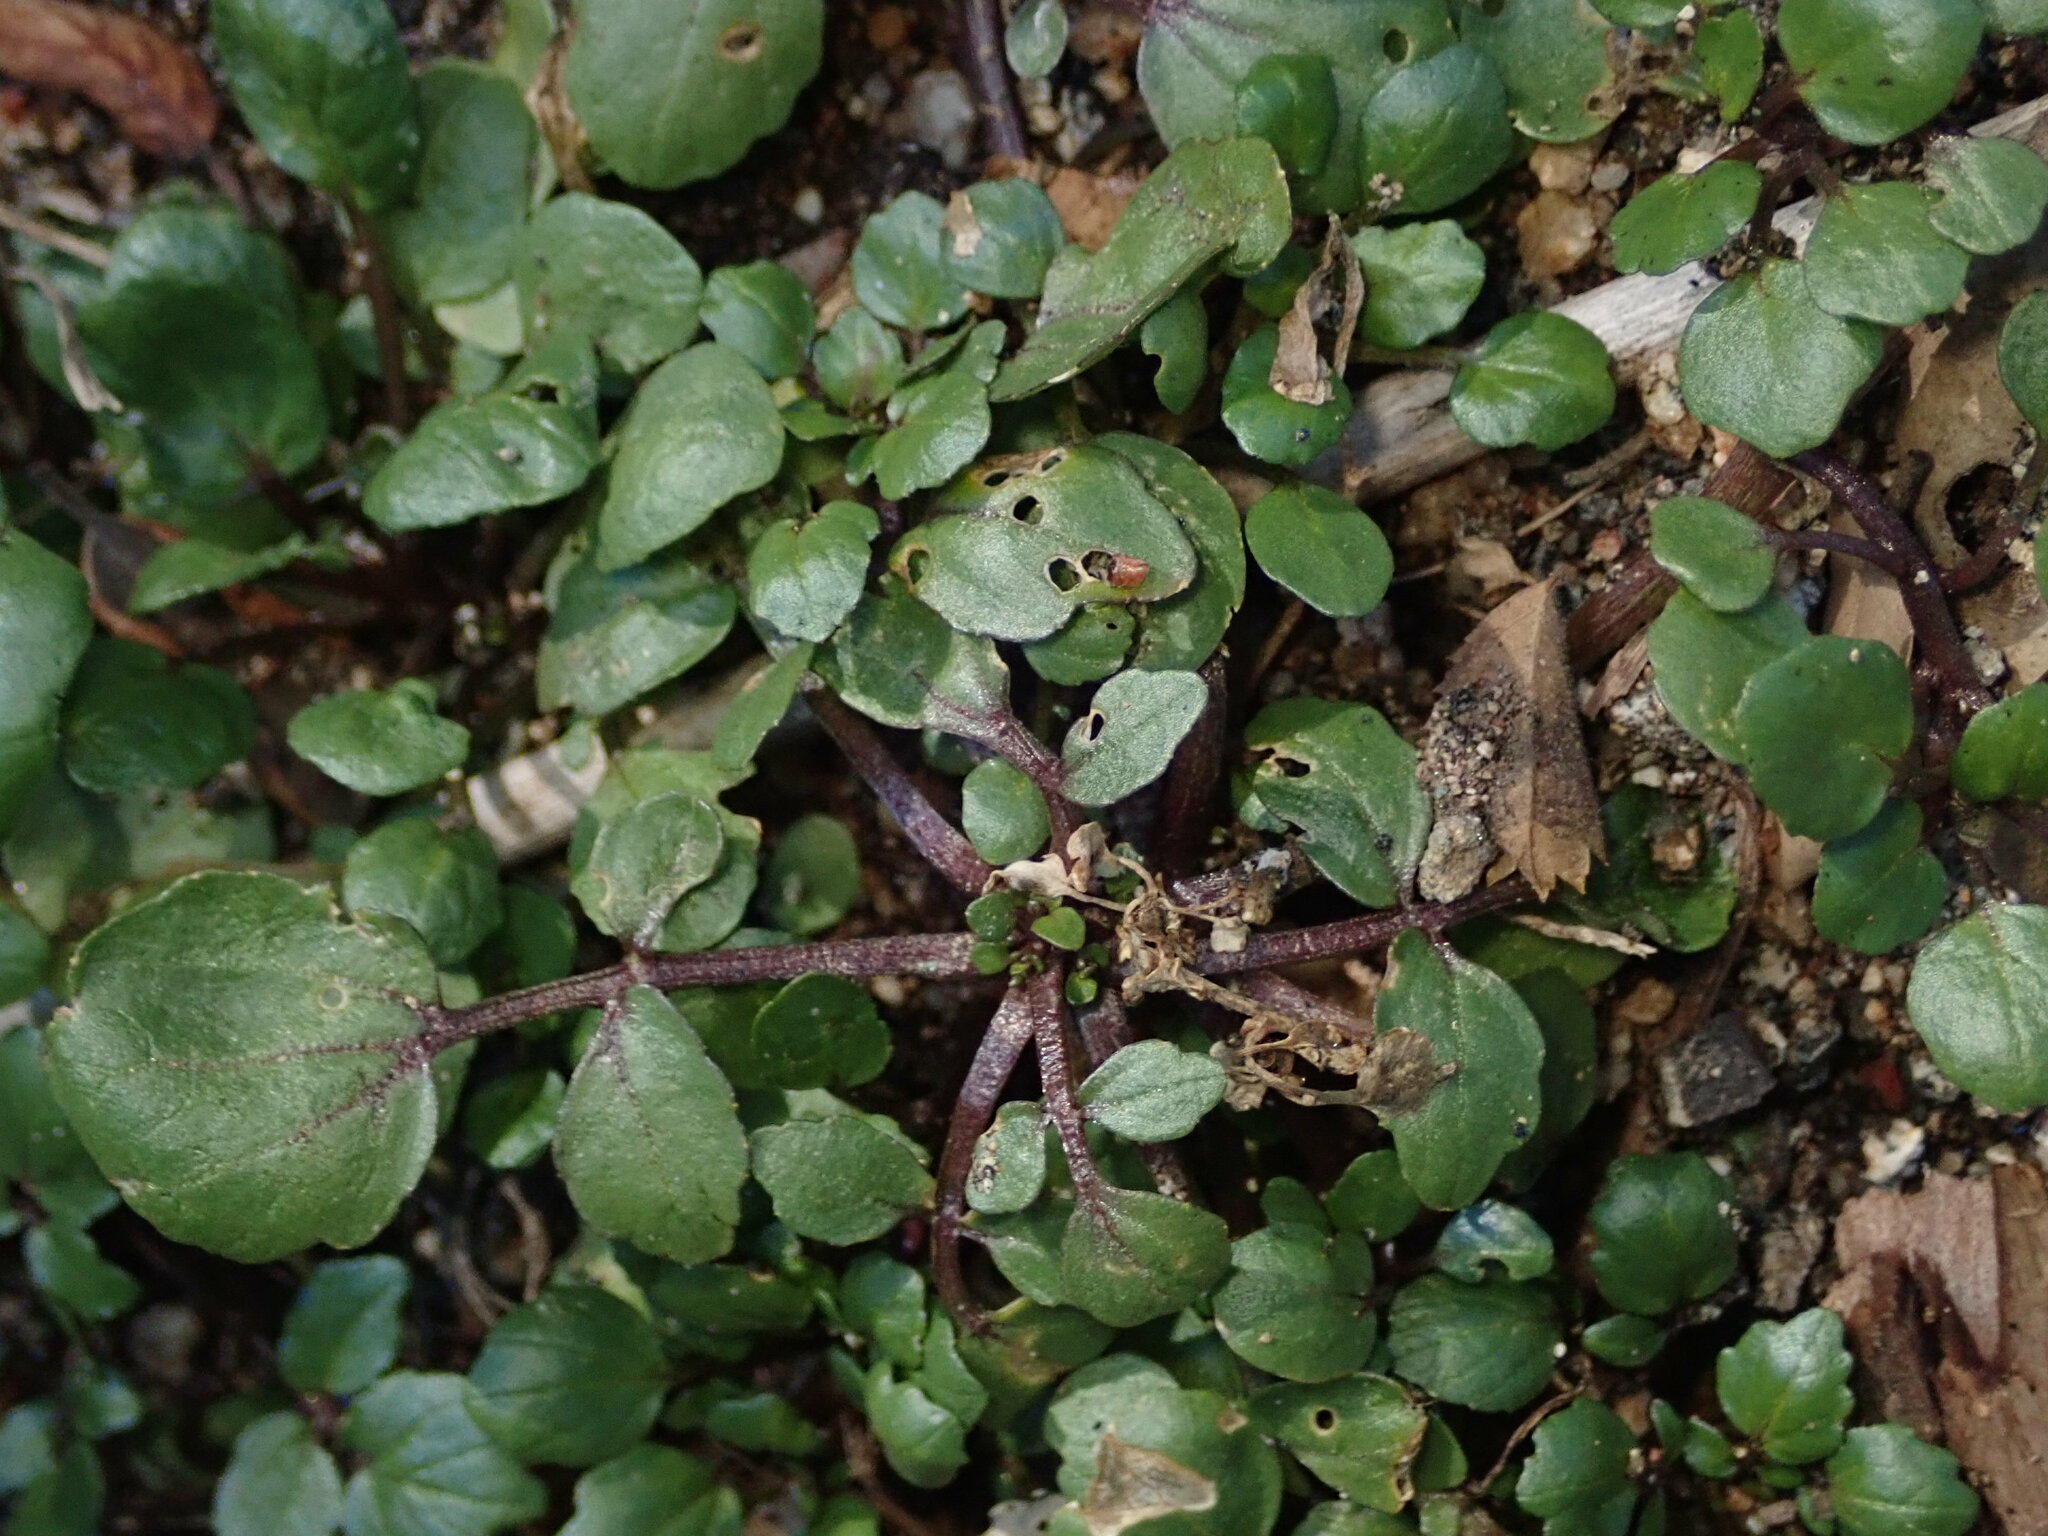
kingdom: Plantae
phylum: Tracheophyta
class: Magnoliopsida
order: Brassicales
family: Brassicaceae
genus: Nasturtium
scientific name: Nasturtium officinale
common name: Watercress
